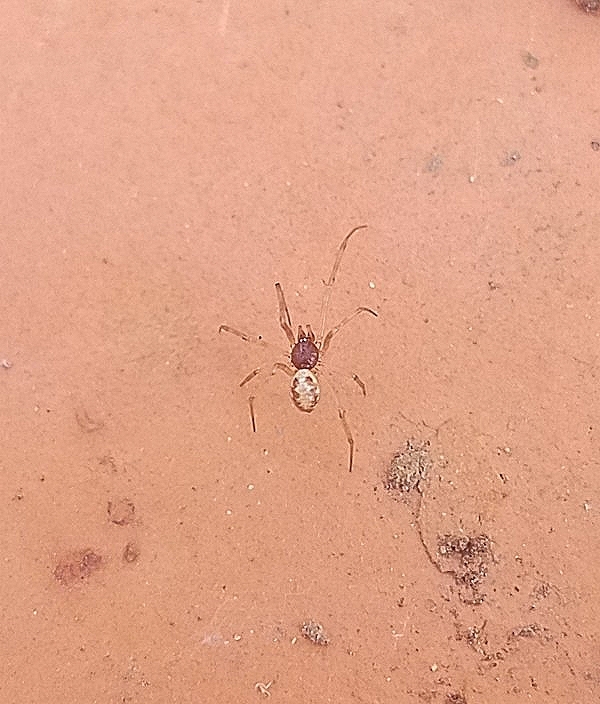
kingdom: Animalia
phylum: Arthropoda
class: Arachnida
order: Araneae
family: Theridiidae
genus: Steatoda
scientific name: Steatoda triangulosa
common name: Triangulate bud spider
